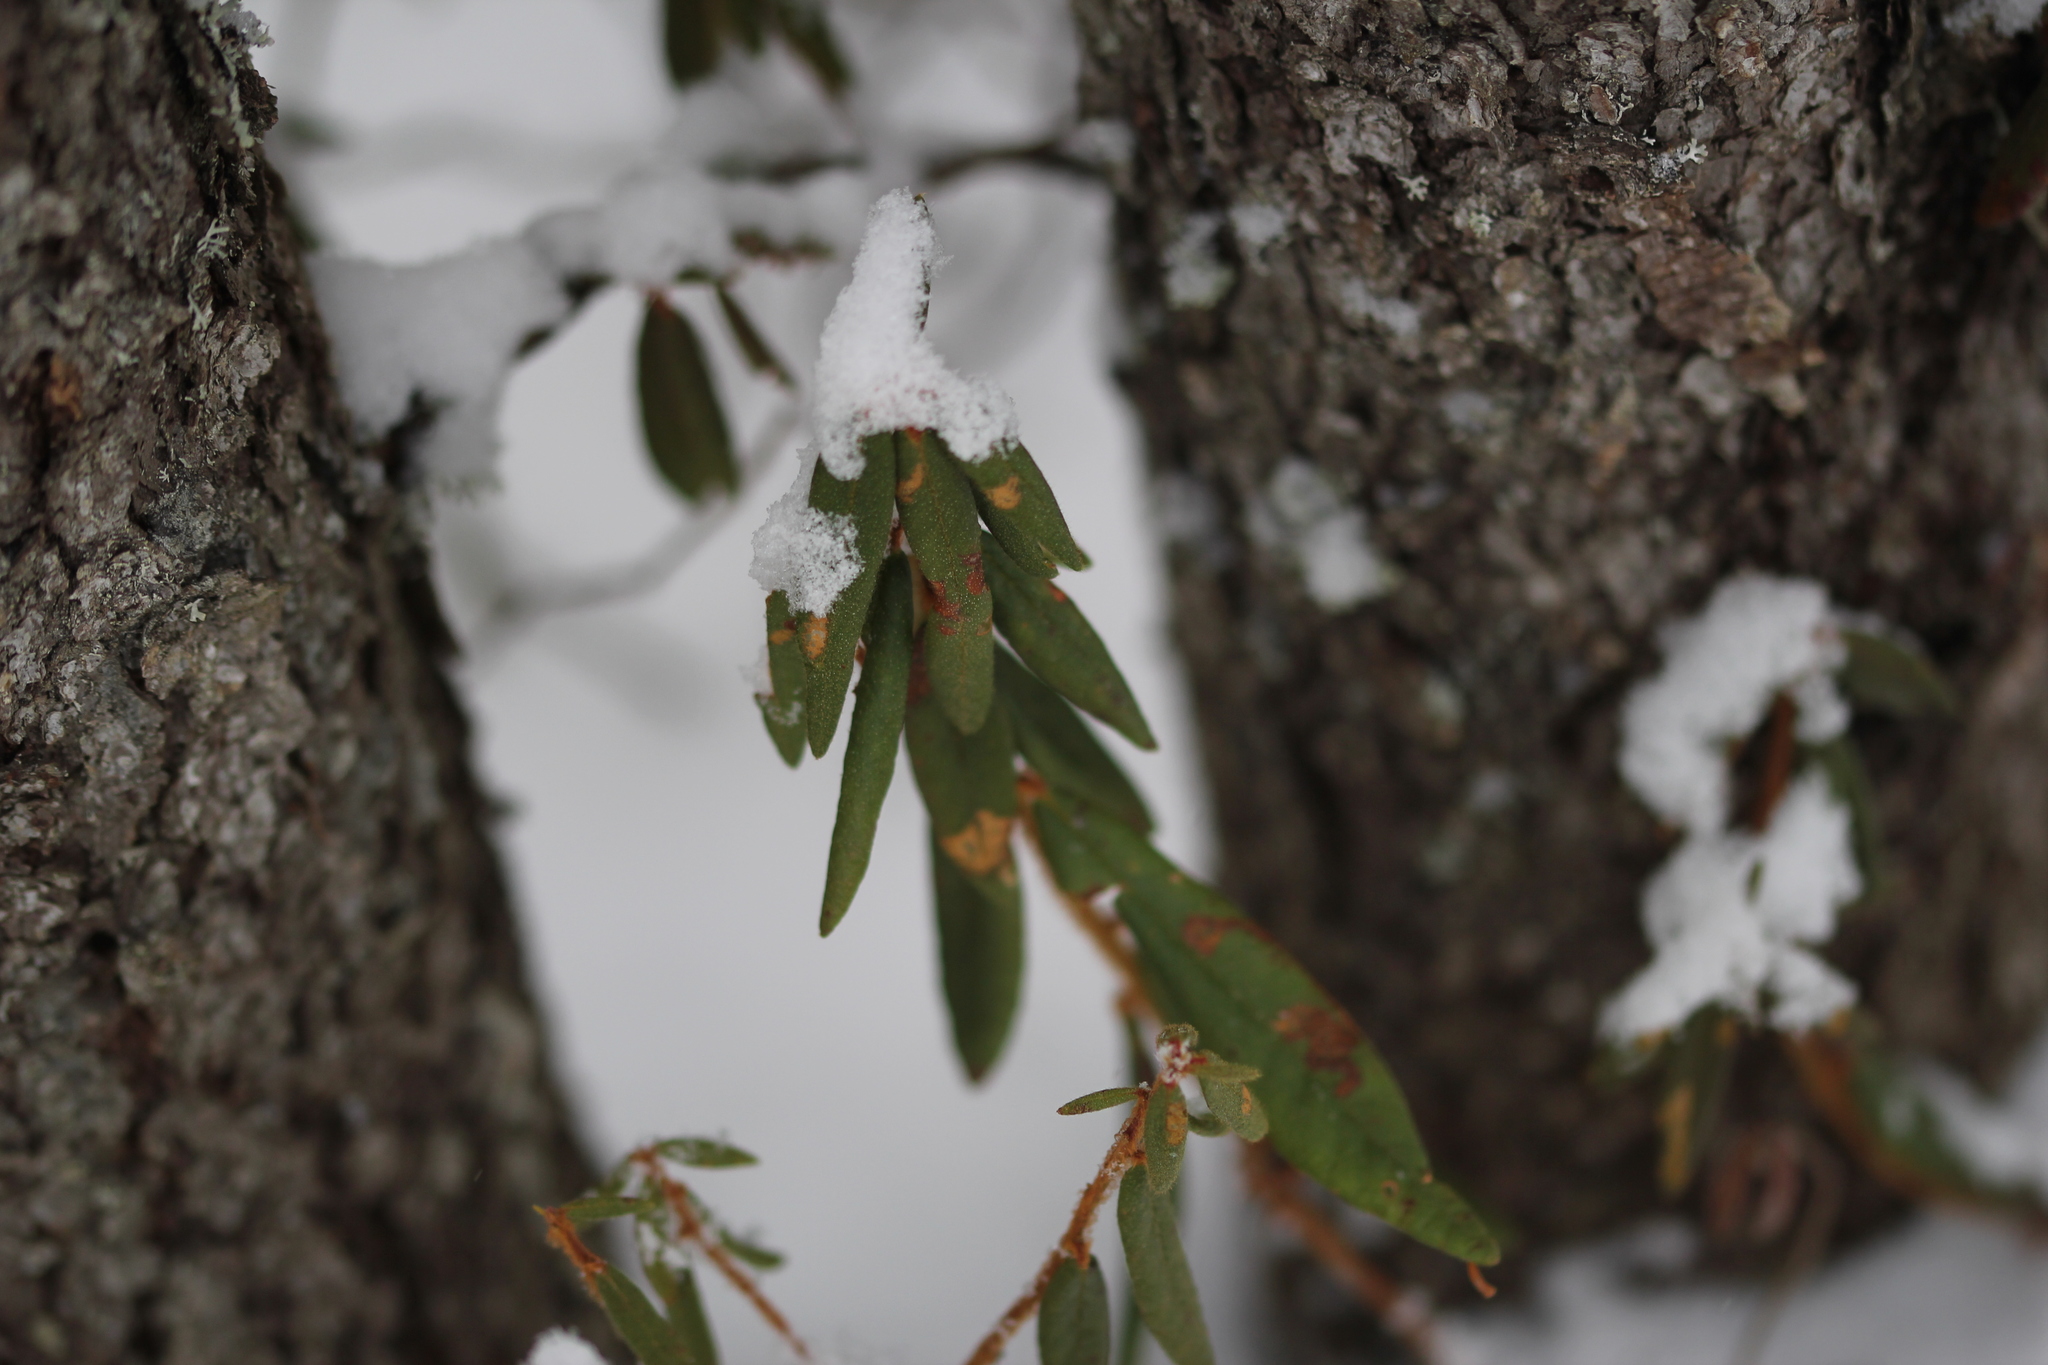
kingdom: Plantae
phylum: Tracheophyta
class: Magnoliopsida
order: Ericales
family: Ericaceae
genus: Rhododendron
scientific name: Rhododendron groenlandicum
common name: Bog labrador tea
